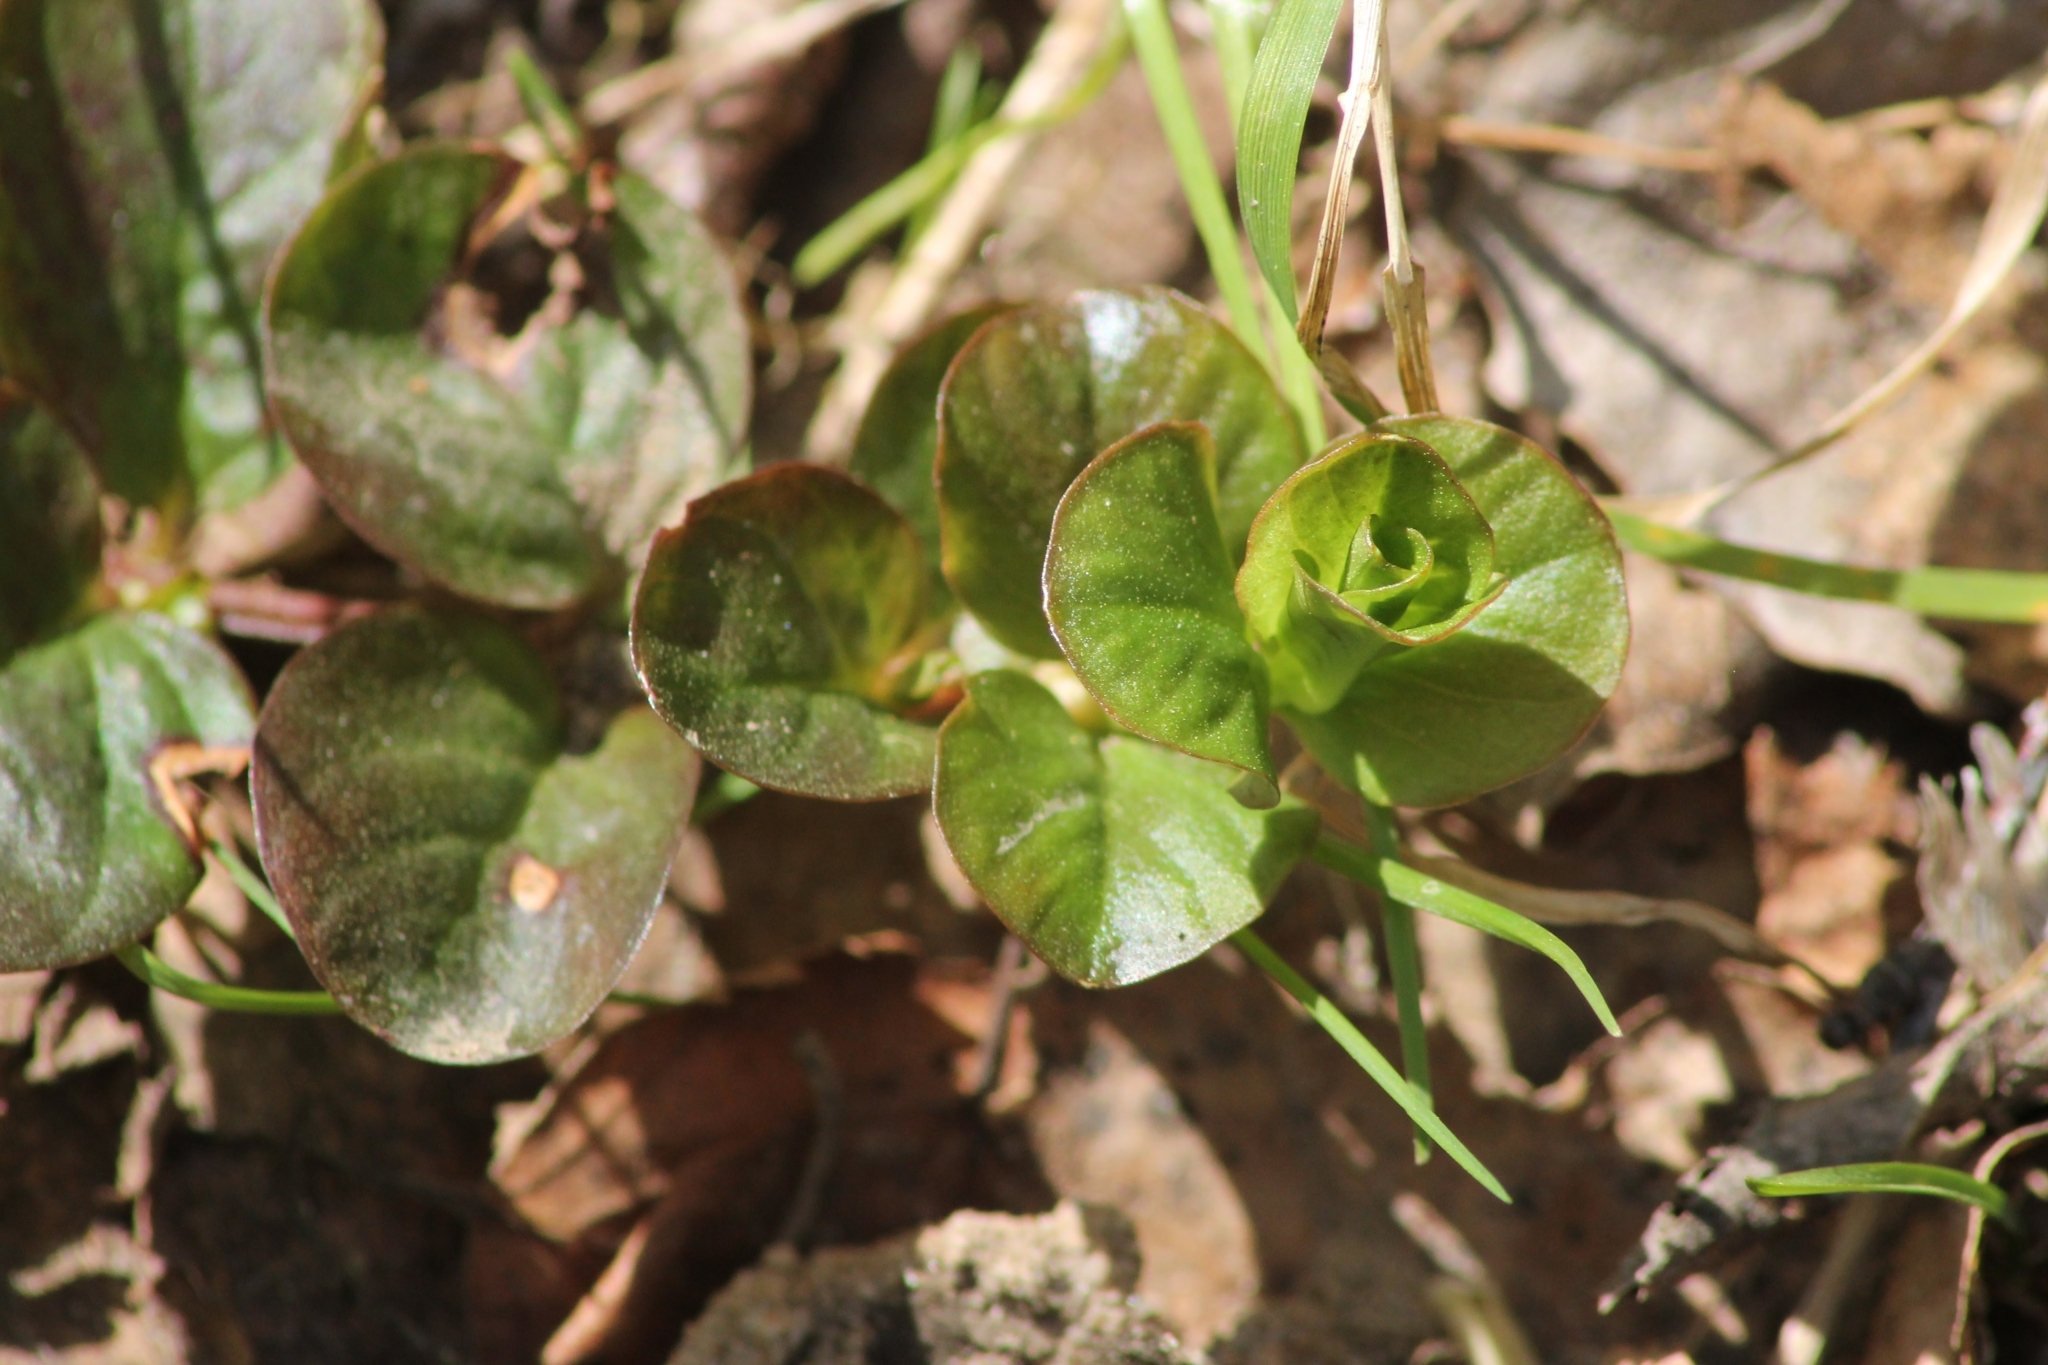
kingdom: Plantae
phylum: Tracheophyta
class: Magnoliopsida
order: Ericales
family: Primulaceae
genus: Lysimachia
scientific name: Lysimachia nummularia
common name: Moneywort
